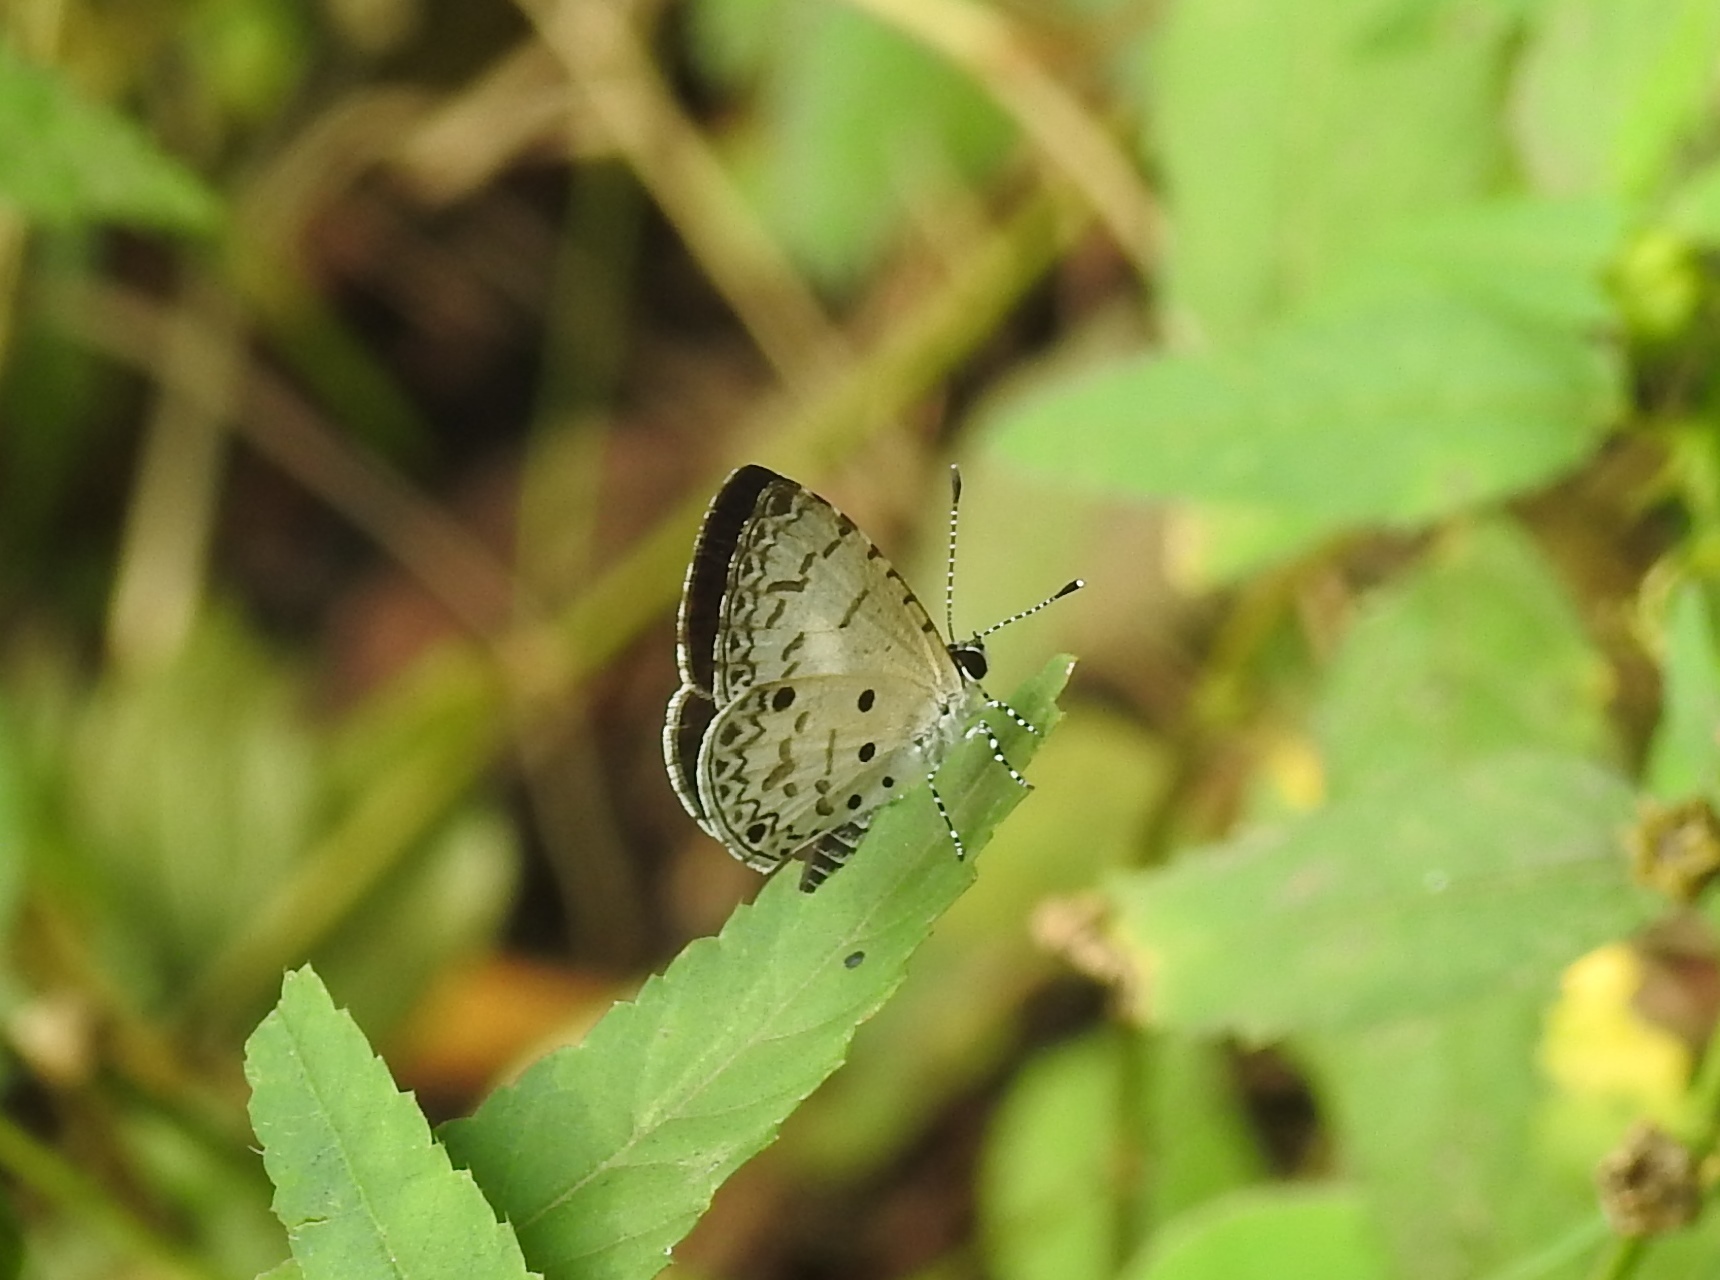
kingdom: Animalia
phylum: Arthropoda
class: Insecta
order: Lepidoptera
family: Lycaenidae
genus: Megisba
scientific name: Megisba malaya
